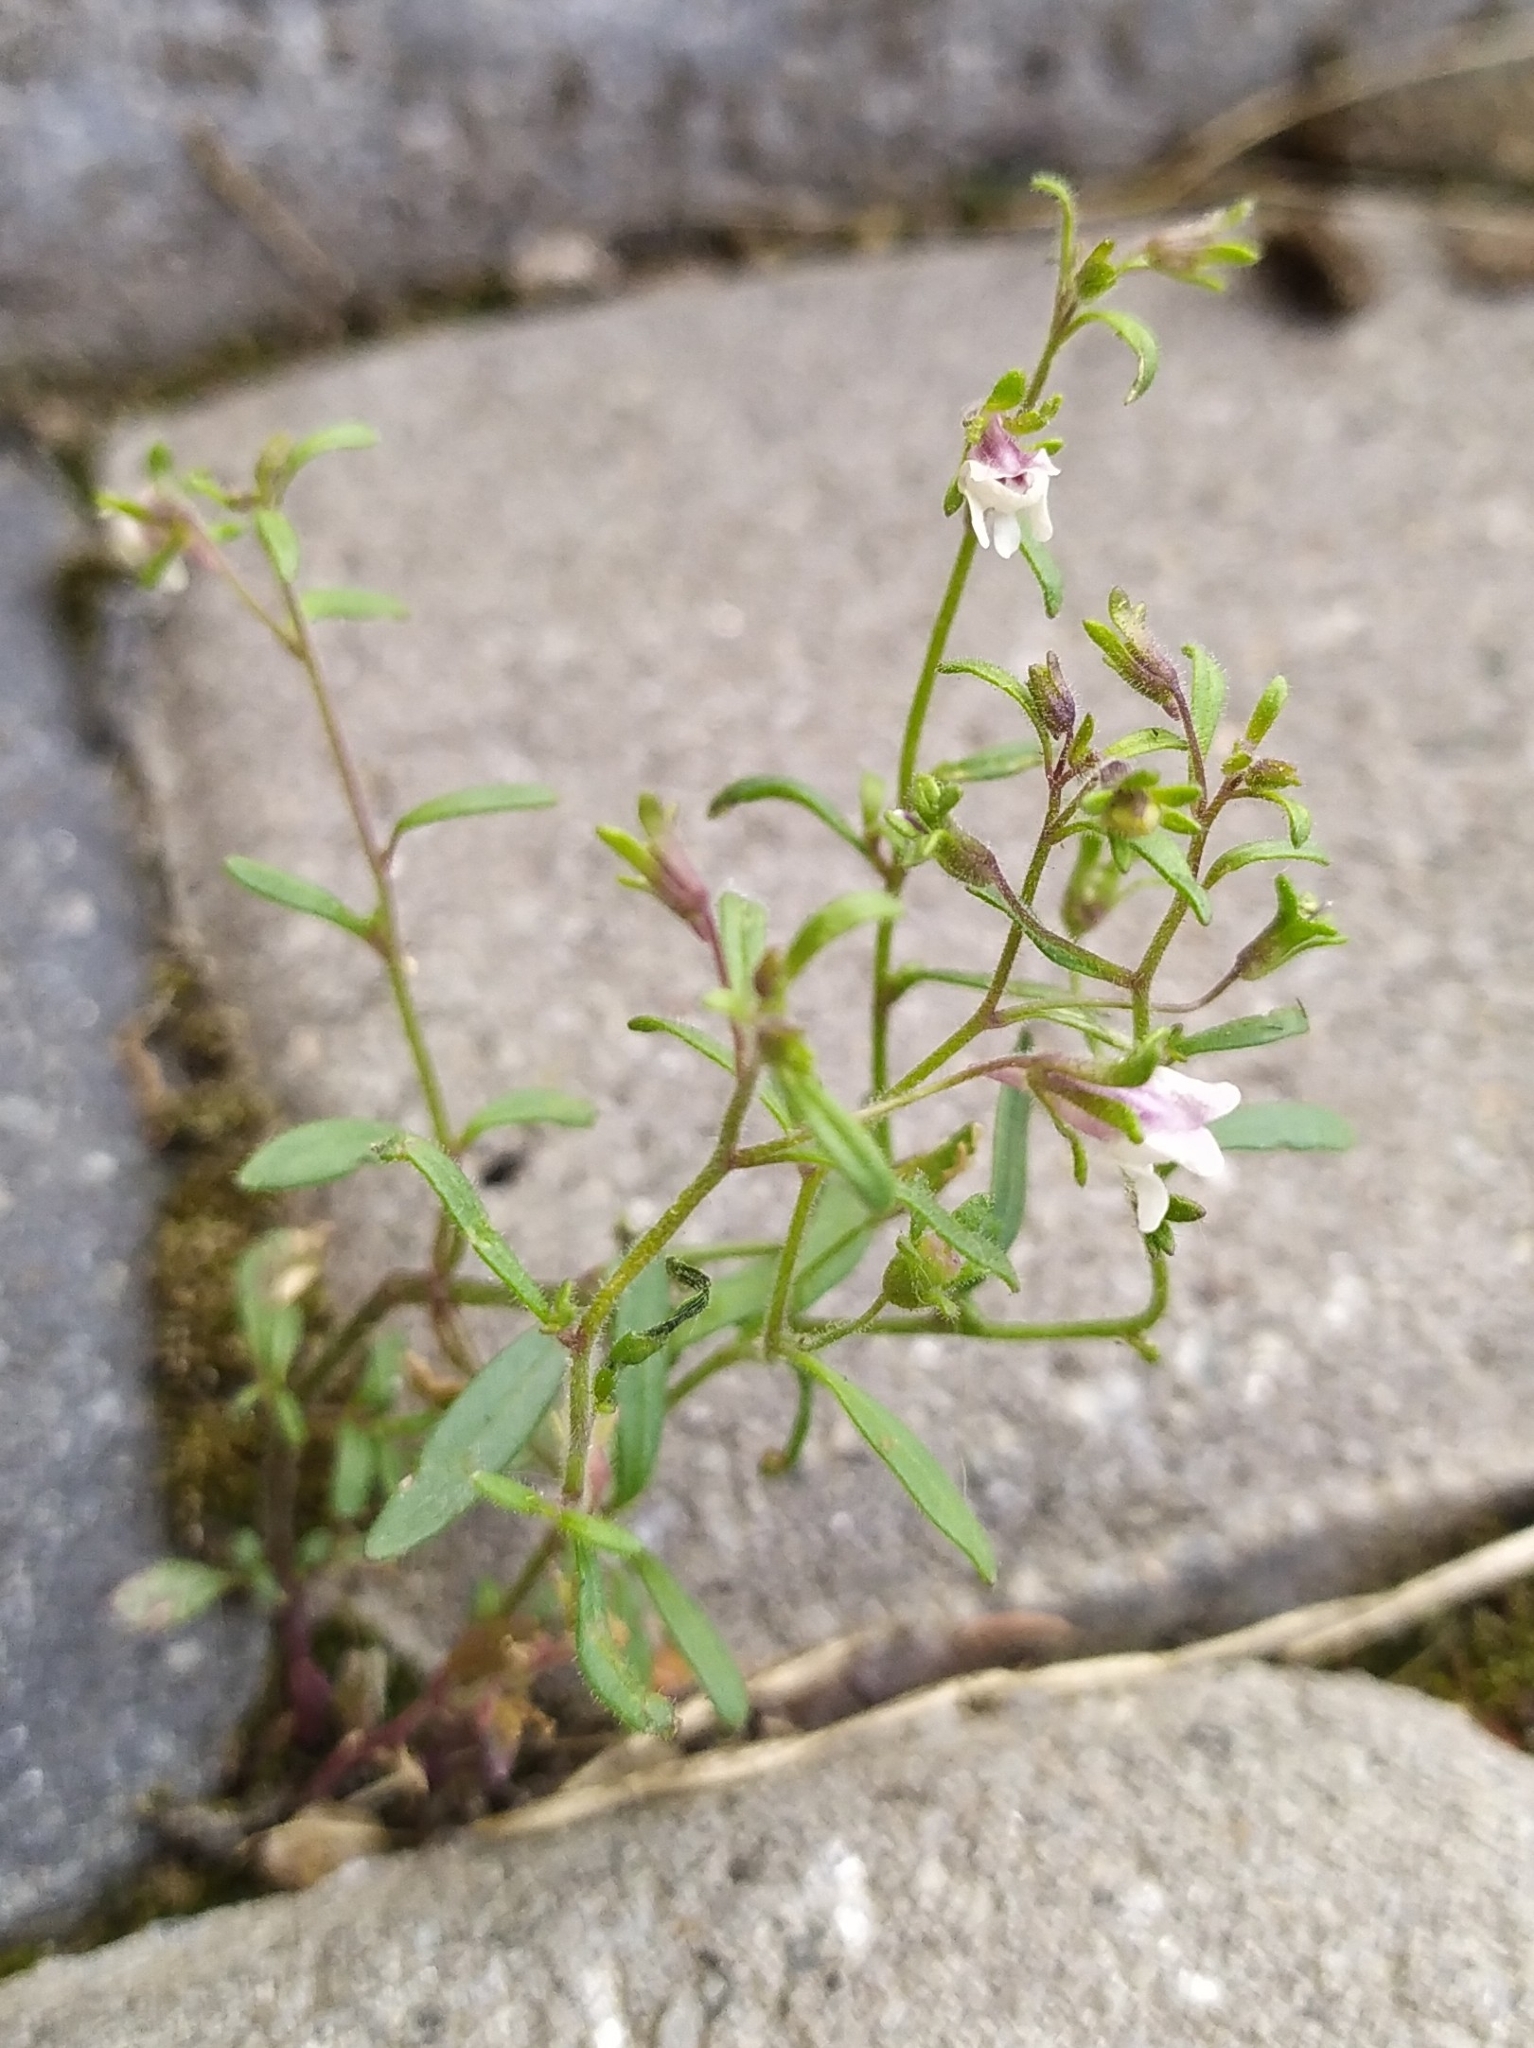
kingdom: Plantae
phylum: Tracheophyta
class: Magnoliopsida
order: Lamiales
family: Plantaginaceae
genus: Chaenorhinum
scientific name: Chaenorhinum minus
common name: Dwarf snapdragon
